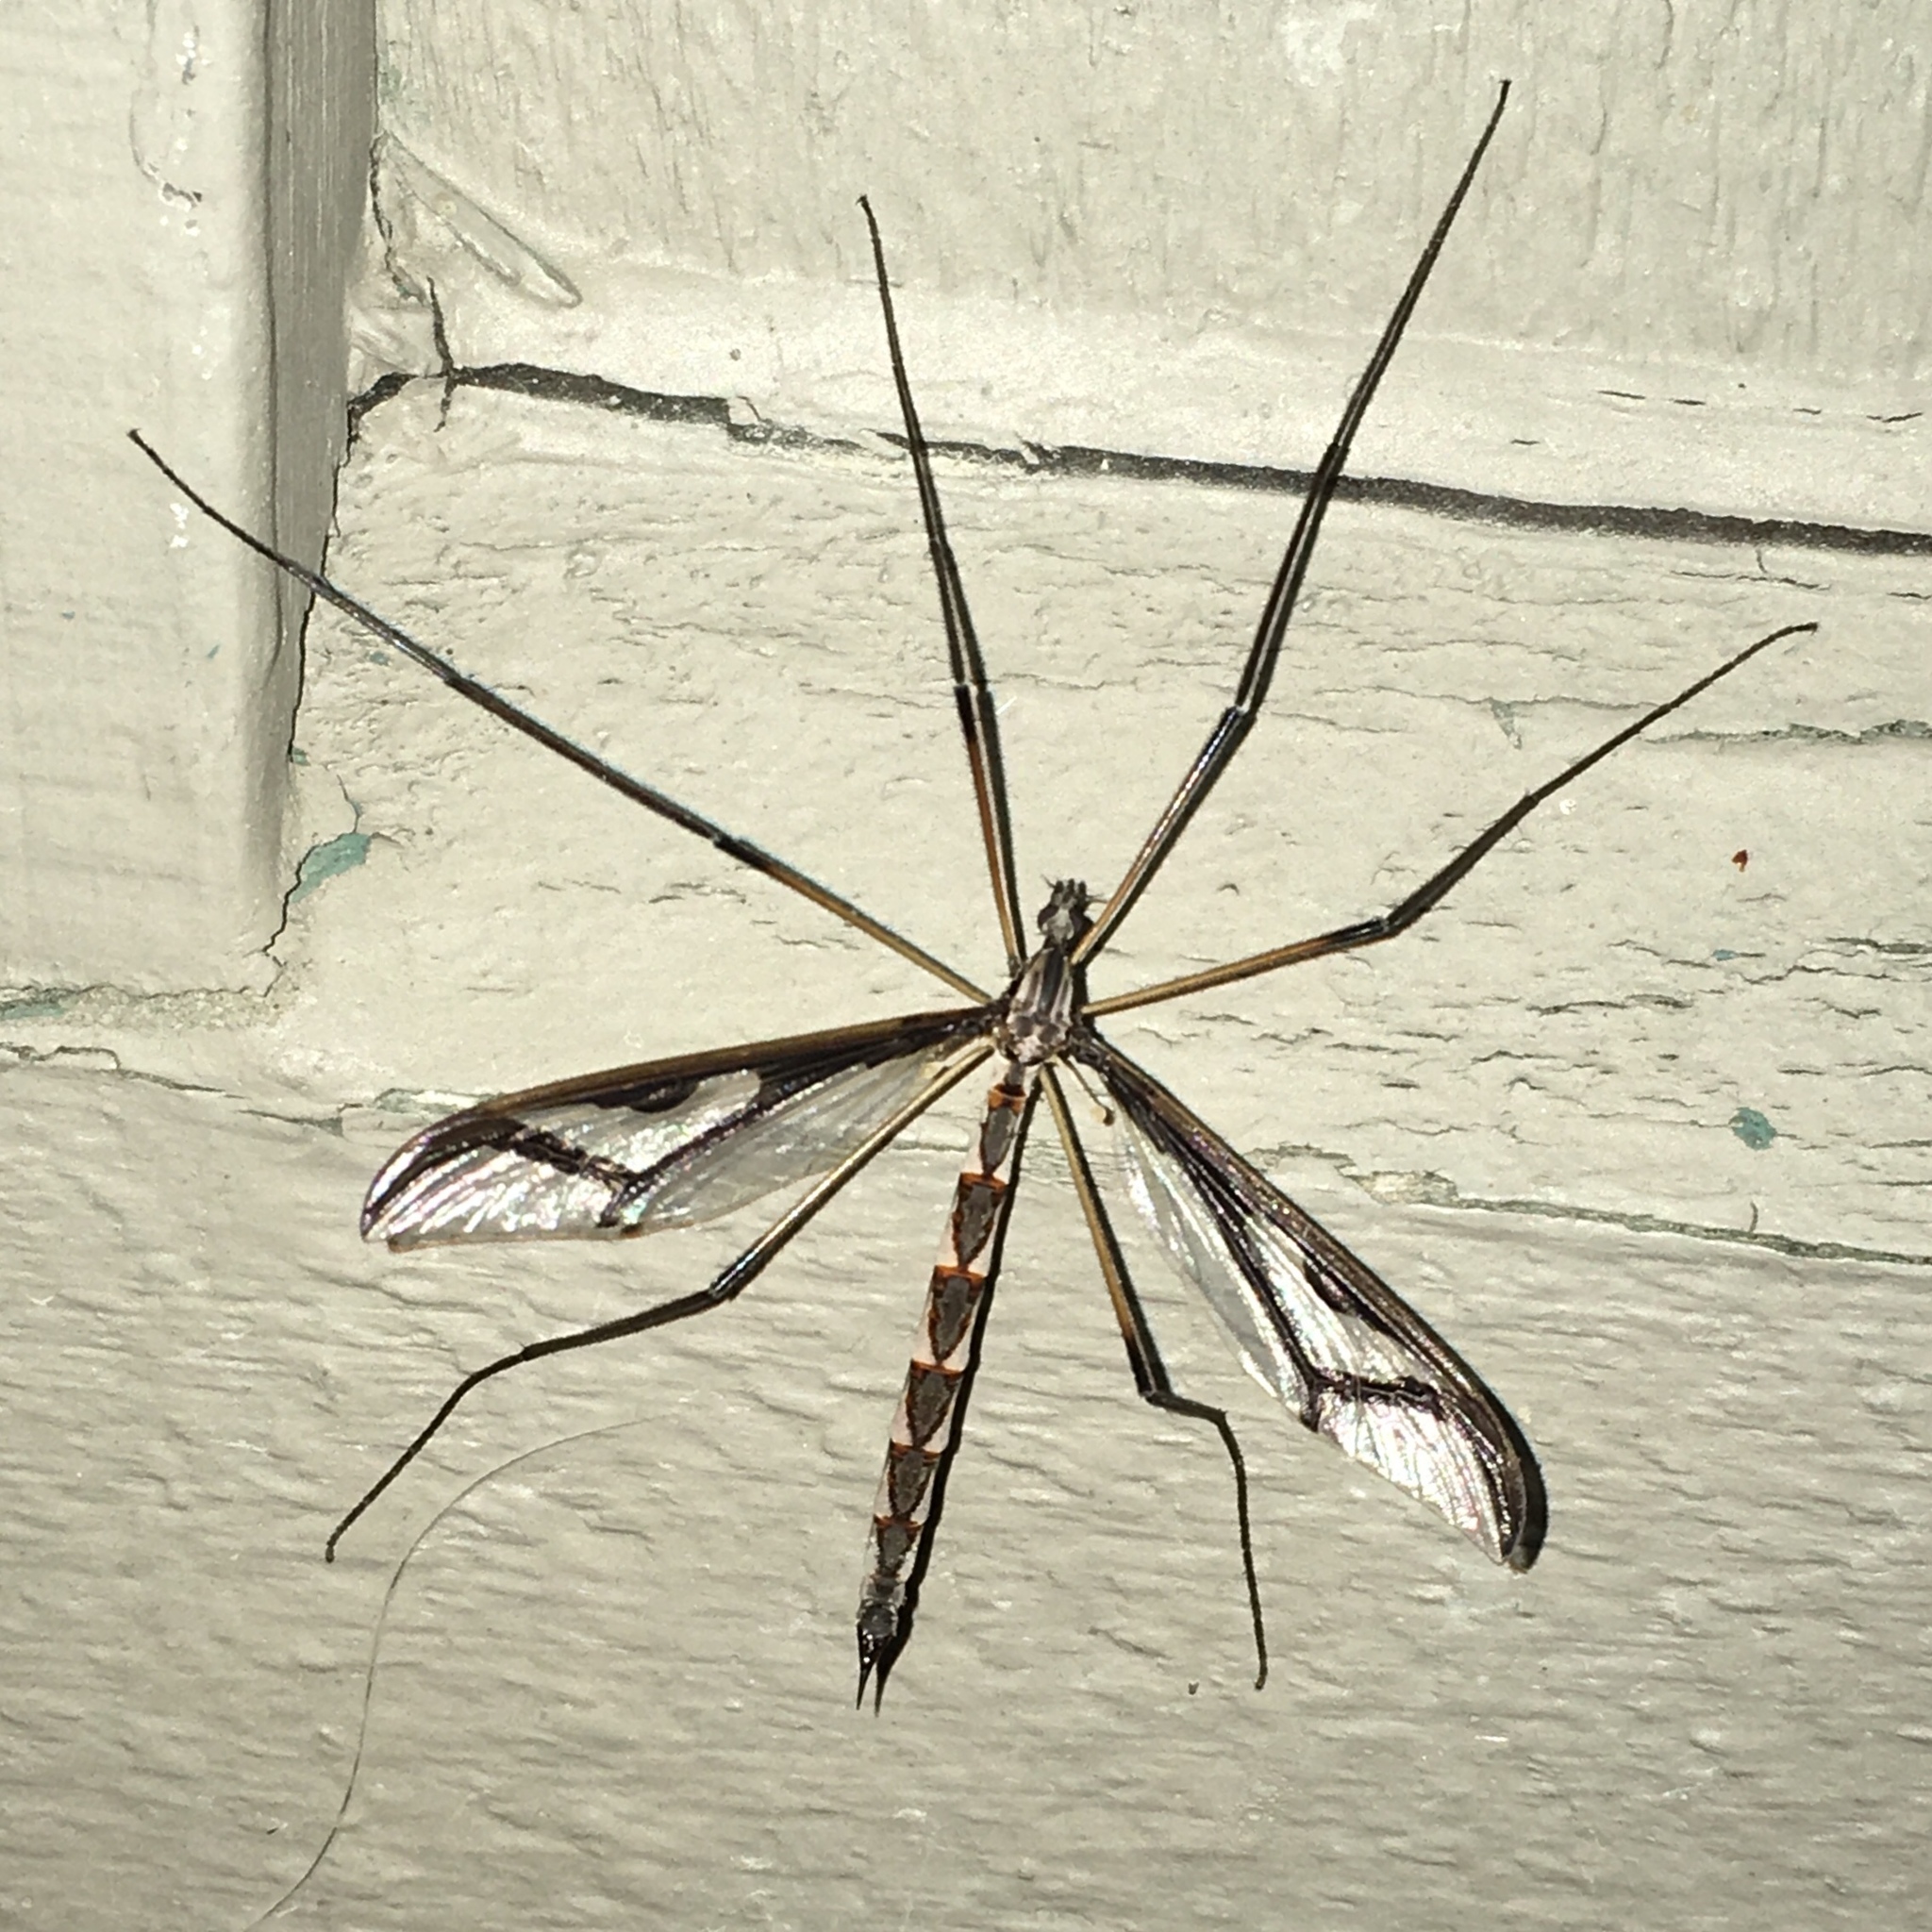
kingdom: Animalia
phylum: Arthropoda
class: Insecta
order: Diptera
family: Pediciidae
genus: Pedicia
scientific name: Pedicia albivitta
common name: Giant eastern crane fly
